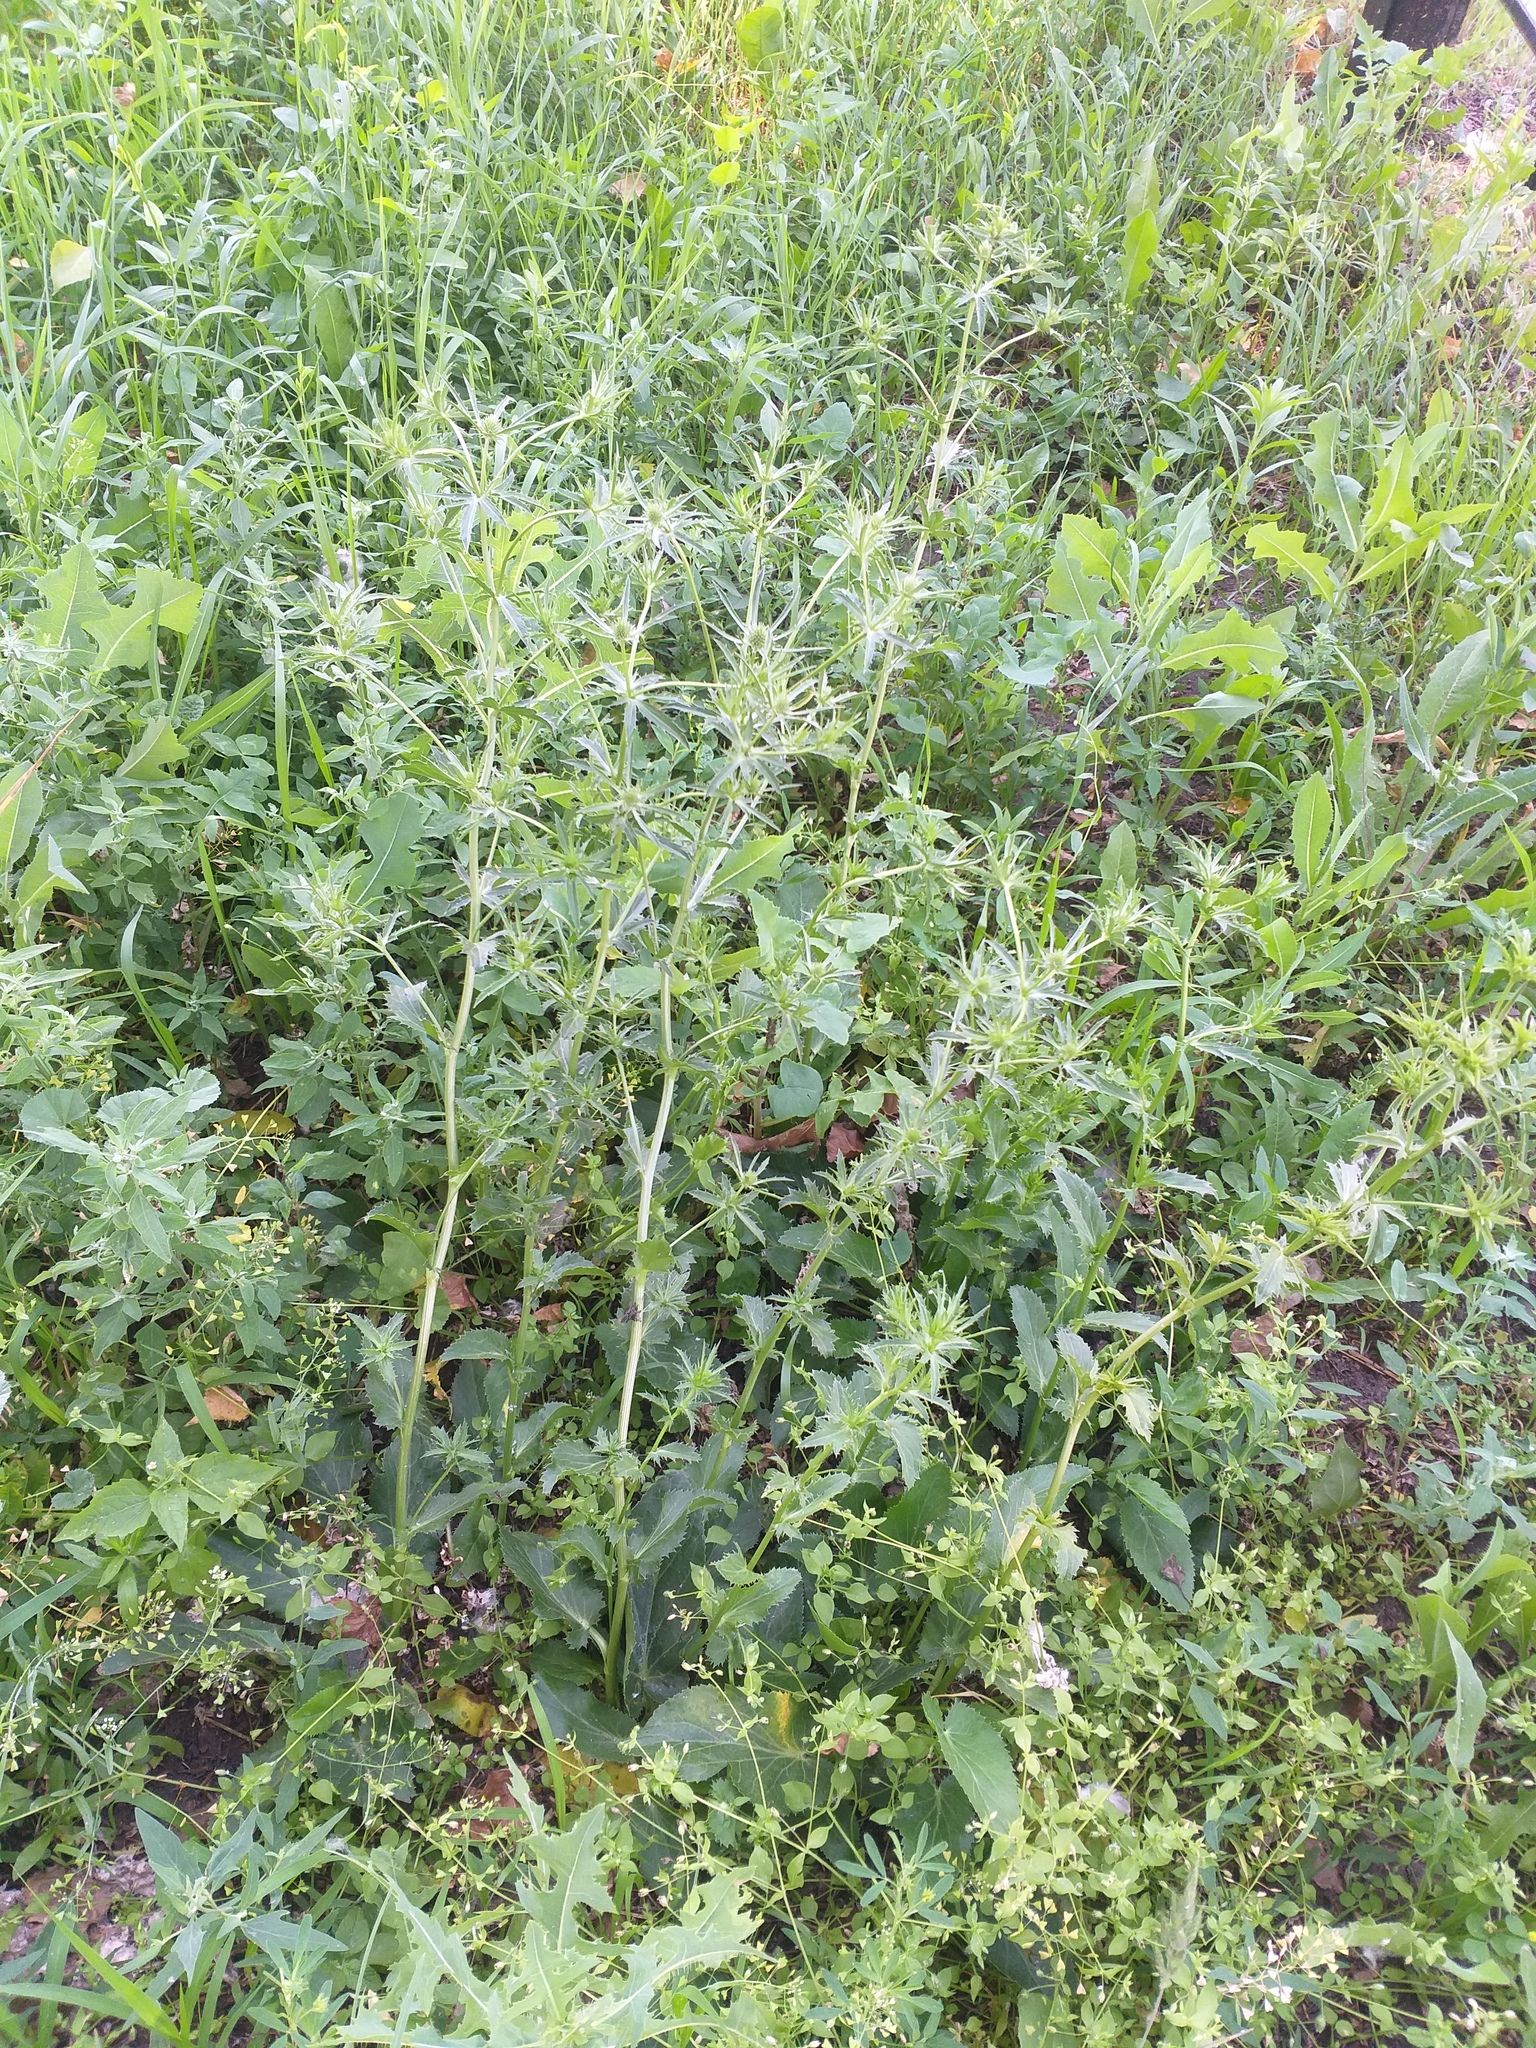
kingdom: Plantae
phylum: Tracheophyta
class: Magnoliopsida
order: Apiales
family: Apiaceae
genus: Eryngium
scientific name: Eryngium planum
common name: Blue eryngo
